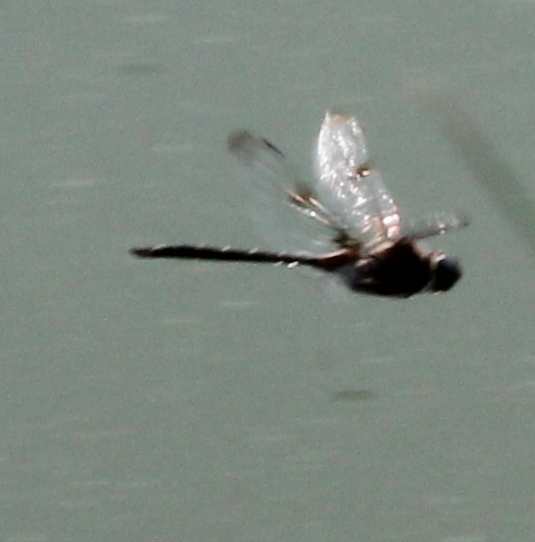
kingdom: Animalia
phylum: Arthropoda
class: Insecta
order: Odonata
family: Corduliidae
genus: Epitheca
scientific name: Epitheca princeps
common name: Prince baskettail
